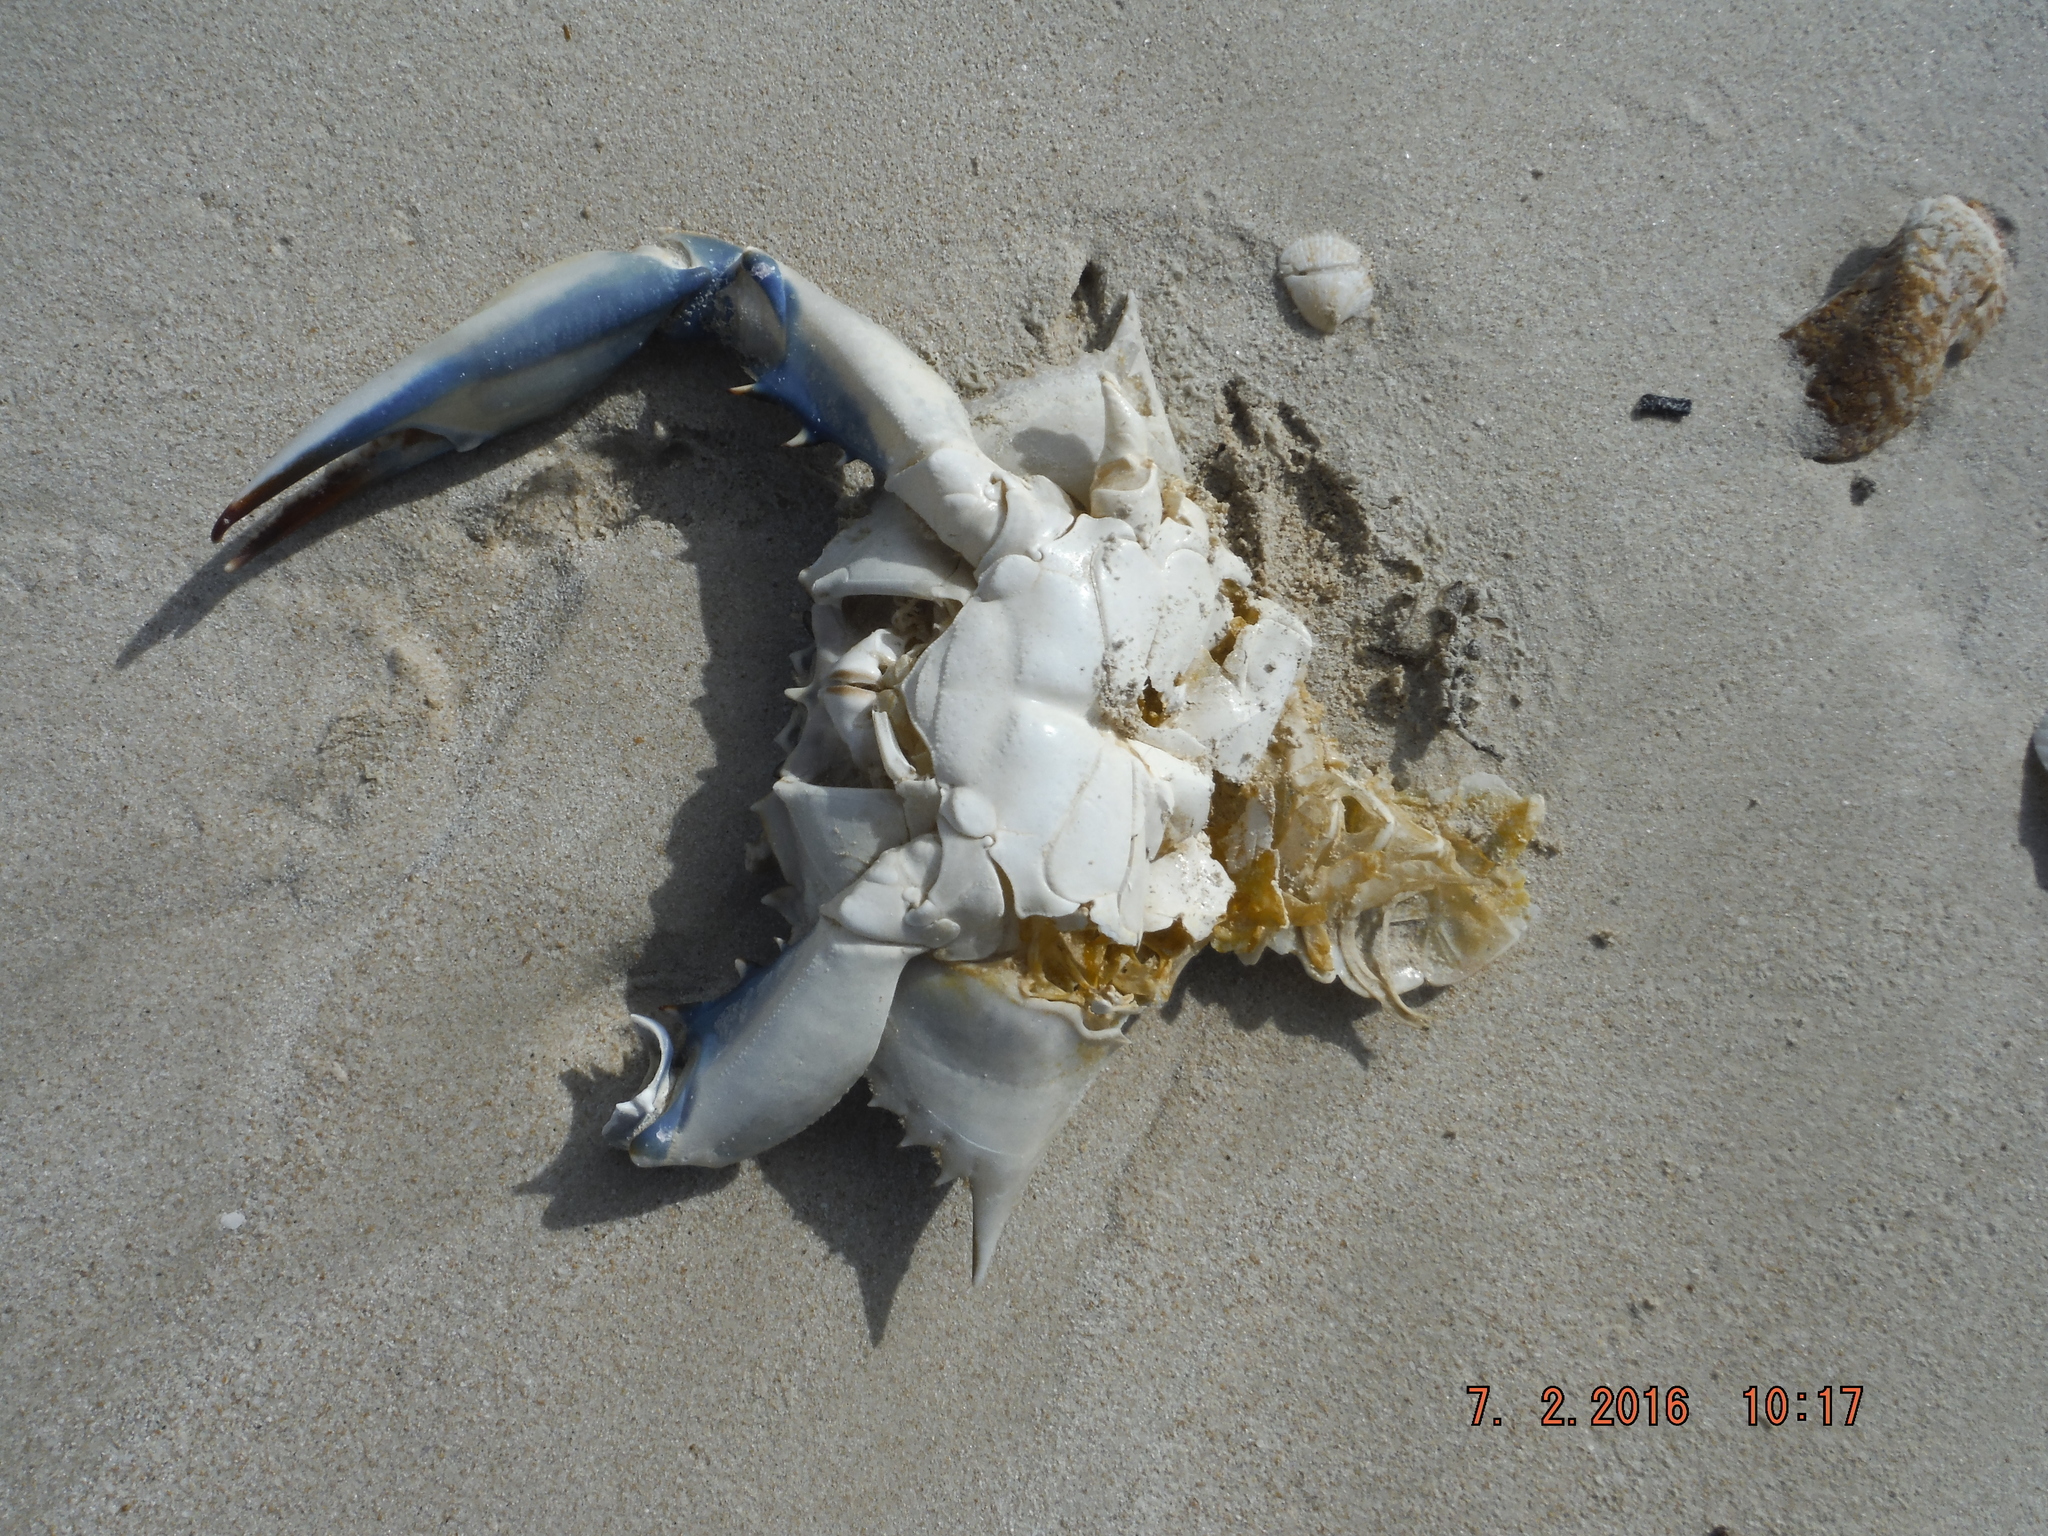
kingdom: Animalia
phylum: Arthropoda
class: Malacostraca
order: Decapoda
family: Portunidae
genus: Callinectes
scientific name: Callinectes sapidus
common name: Blue crab
